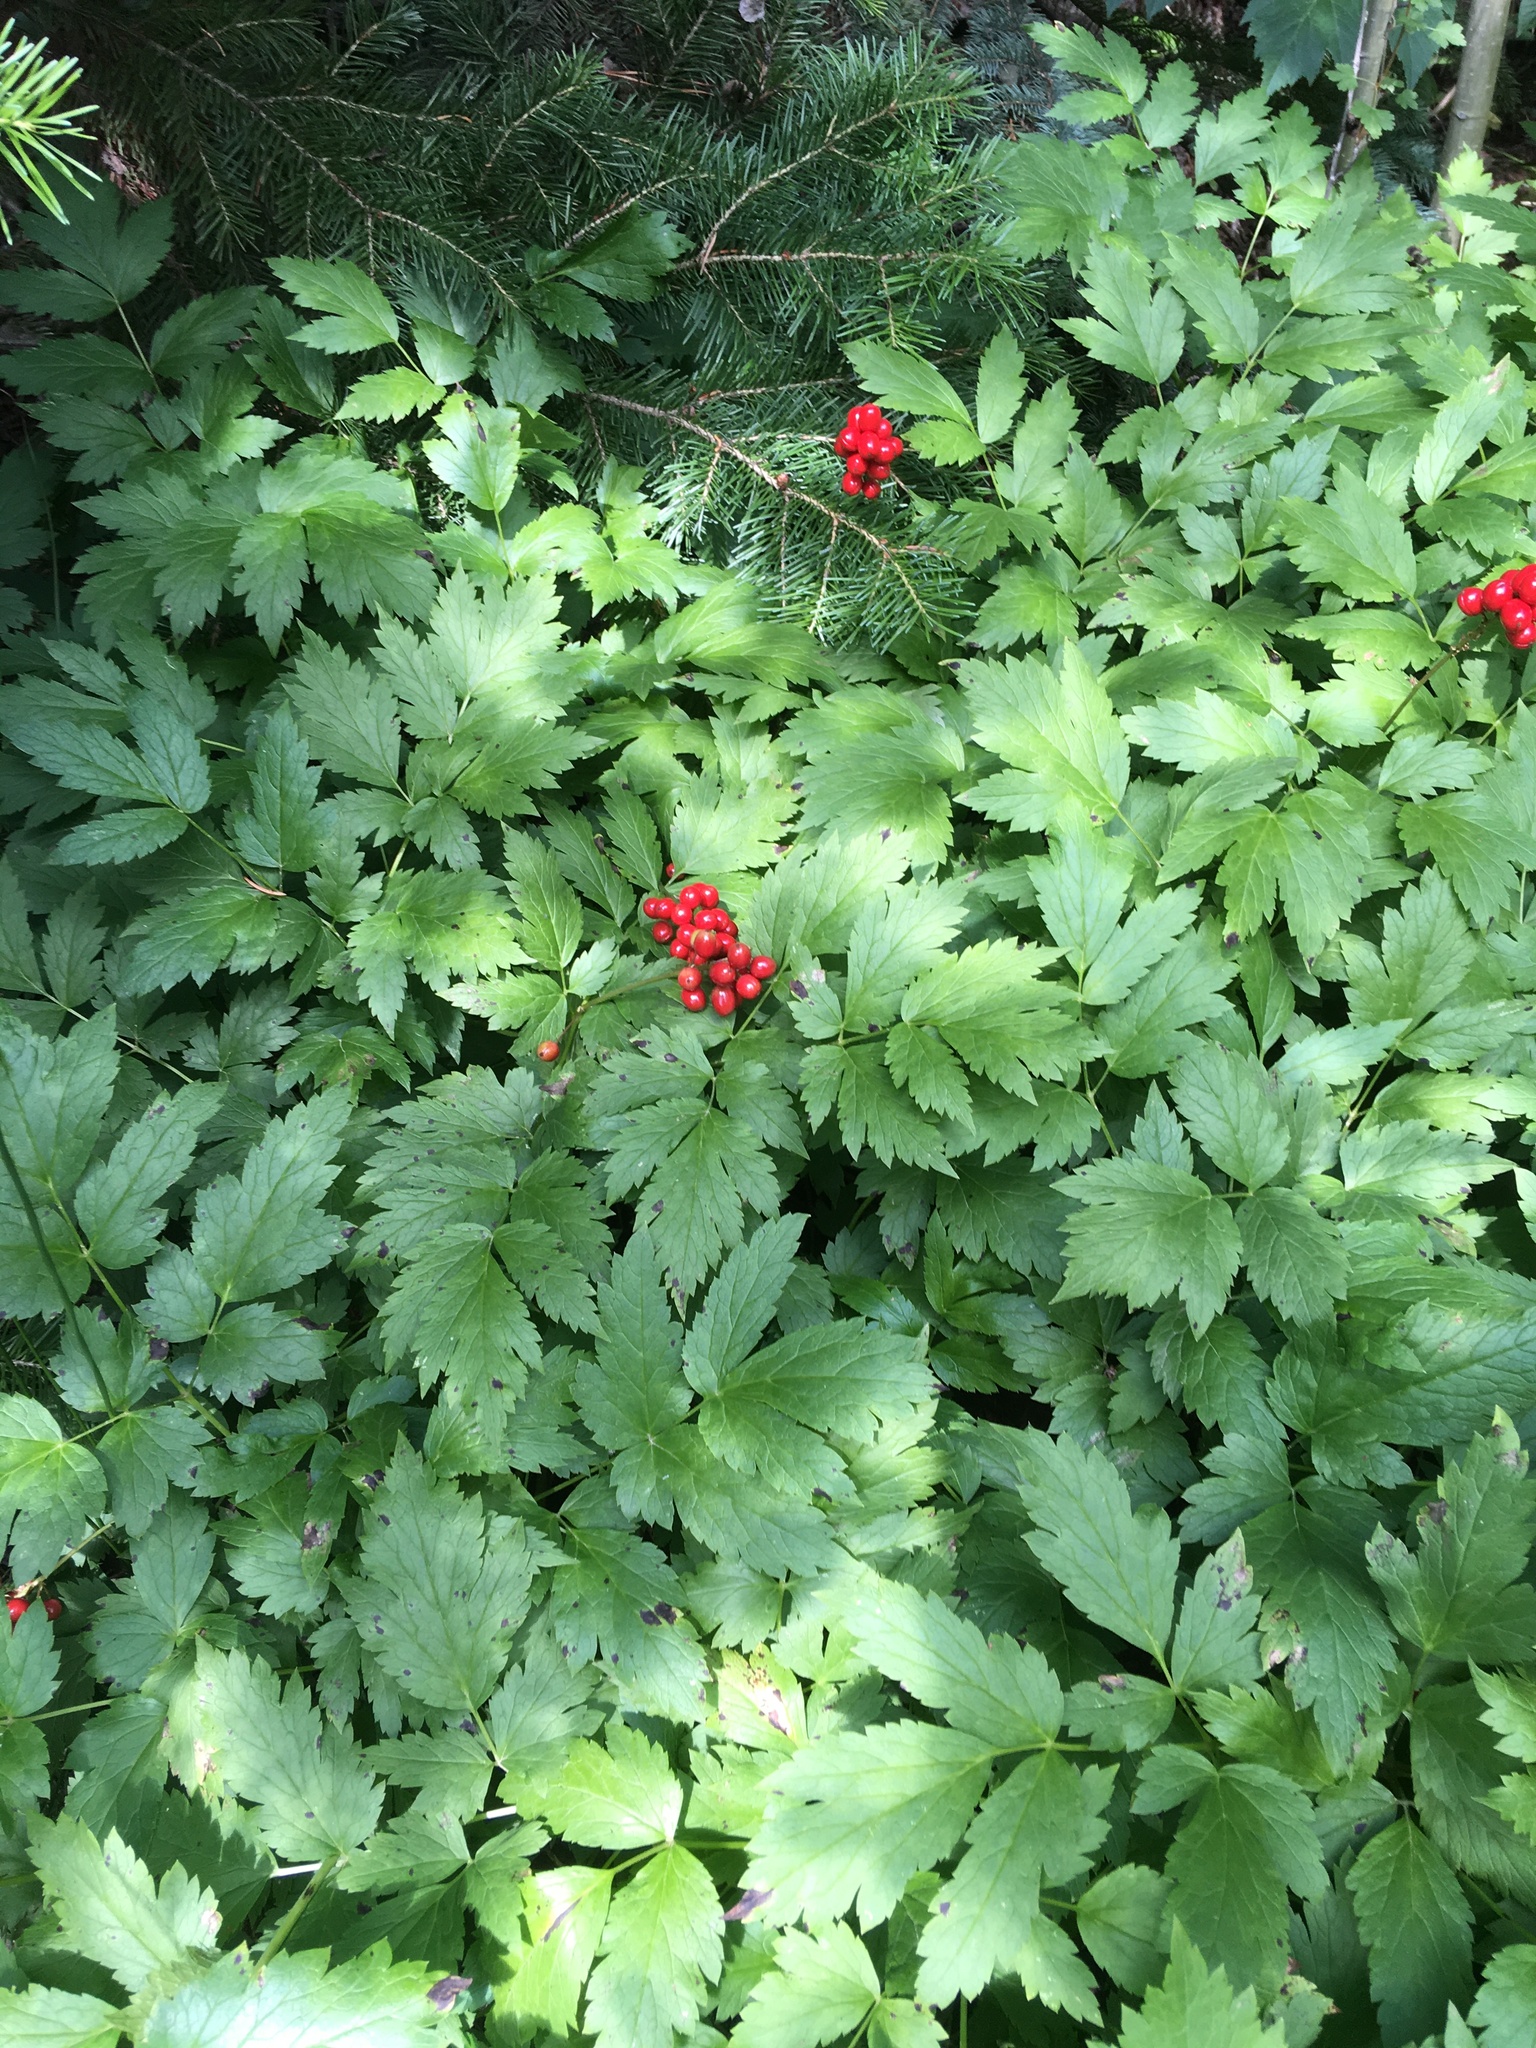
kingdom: Plantae
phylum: Tracheophyta
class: Magnoliopsida
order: Ranunculales
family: Ranunculaceae
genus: Actaea
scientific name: Actaea rubra
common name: Red baneberry
